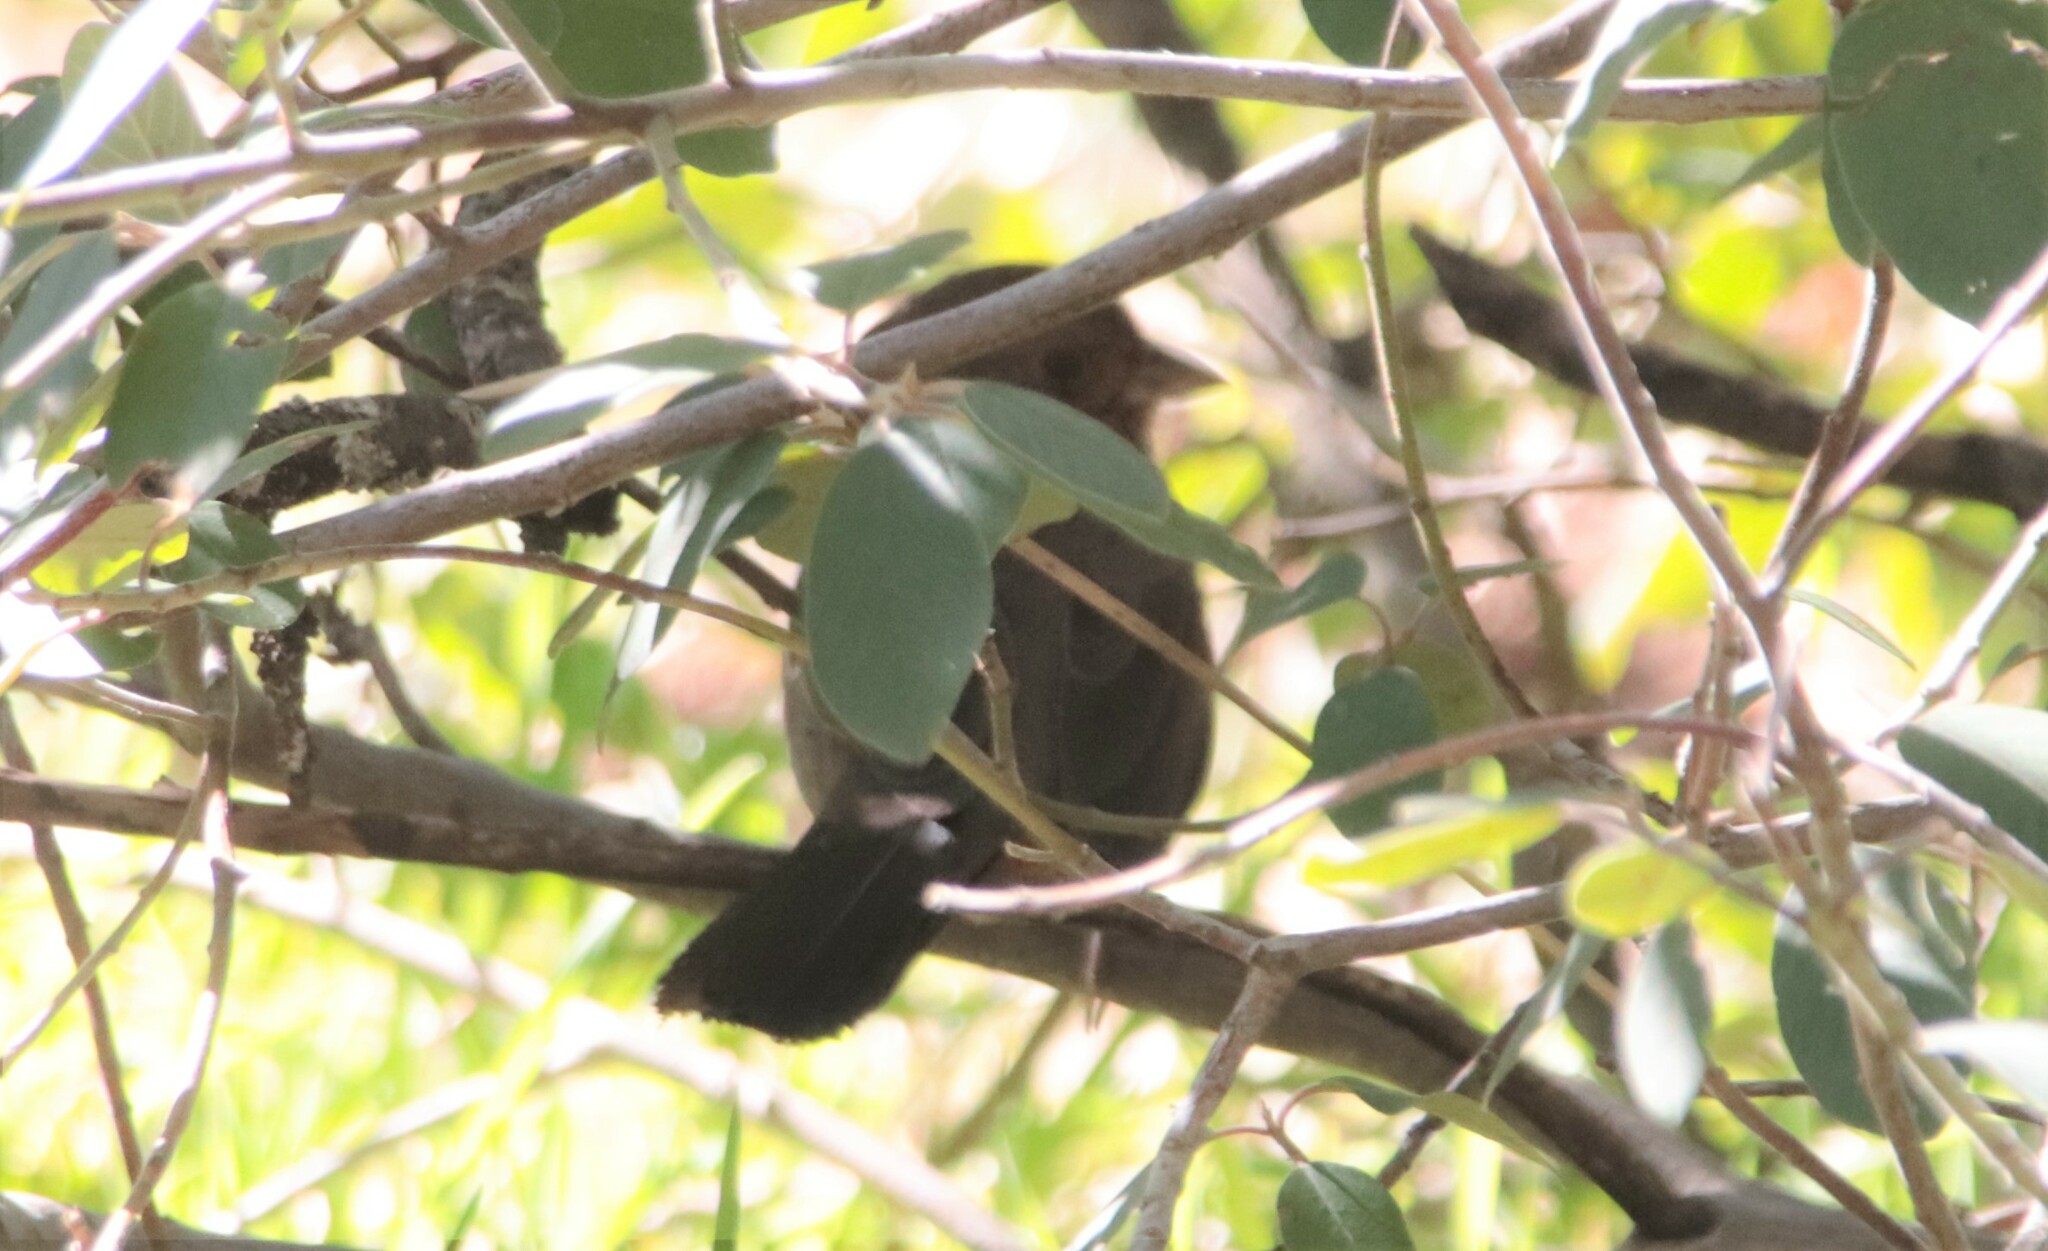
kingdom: Animalia
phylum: Chordata
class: Aves
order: Passeriformes
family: Passerellidae
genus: Melozone
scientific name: Melozone crissalis
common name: California towhee
